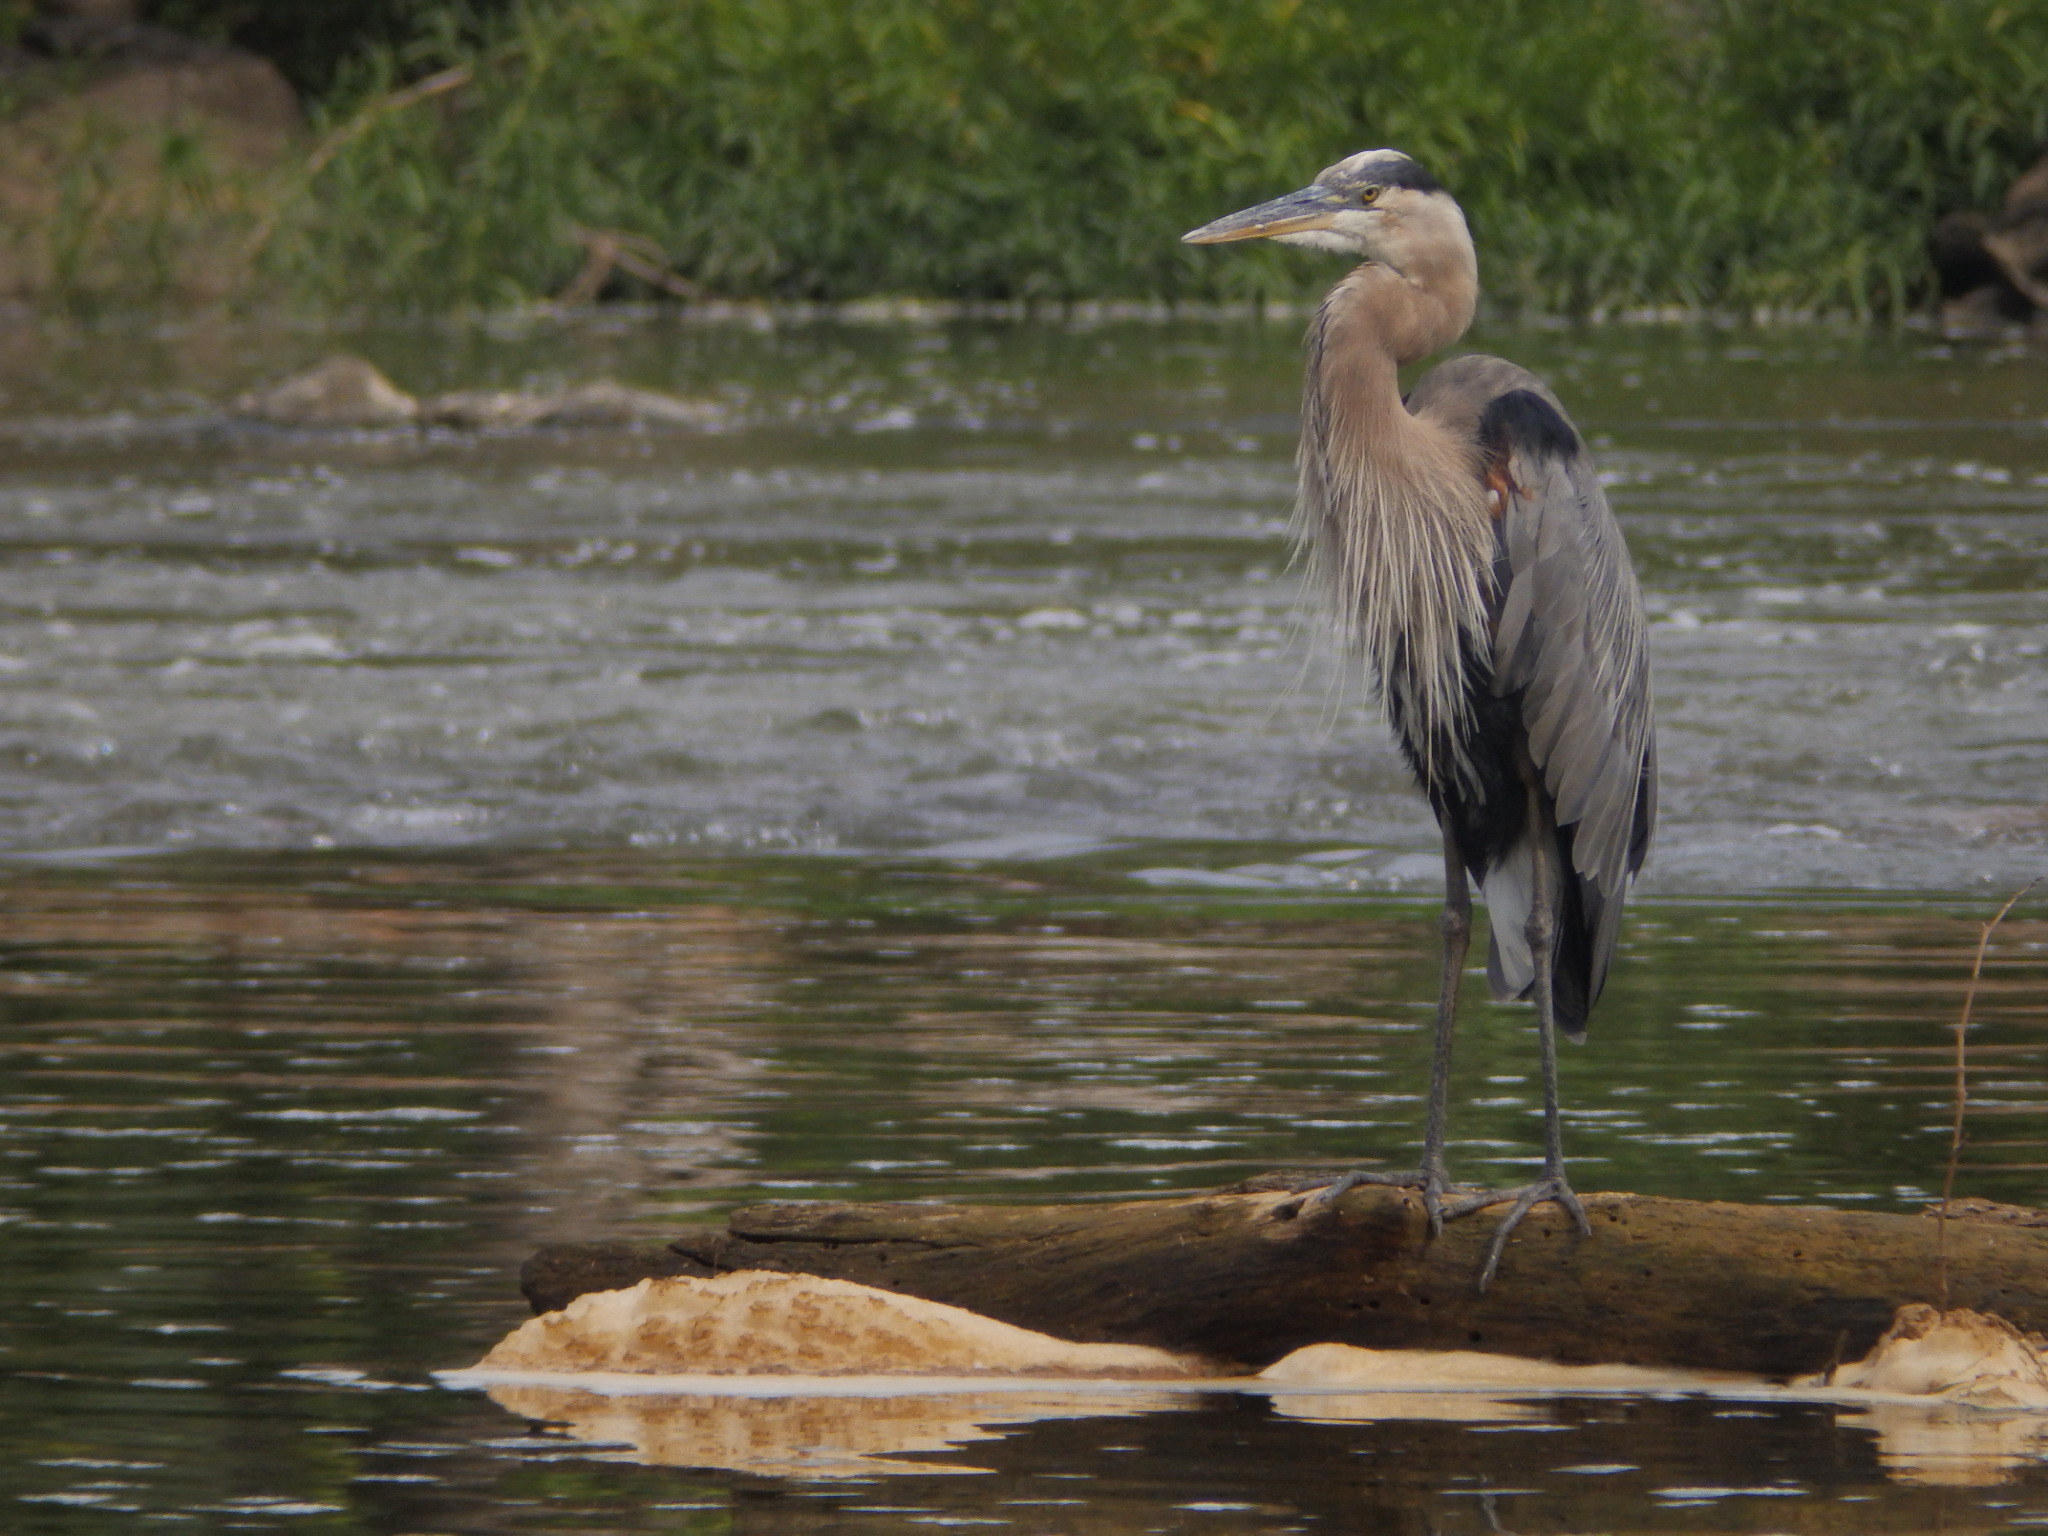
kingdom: Animalia
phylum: Chordata
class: Aves
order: Pelecaniformes
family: Ardeidae
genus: Ardea
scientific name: Ardea herodias
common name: Great blue heron
